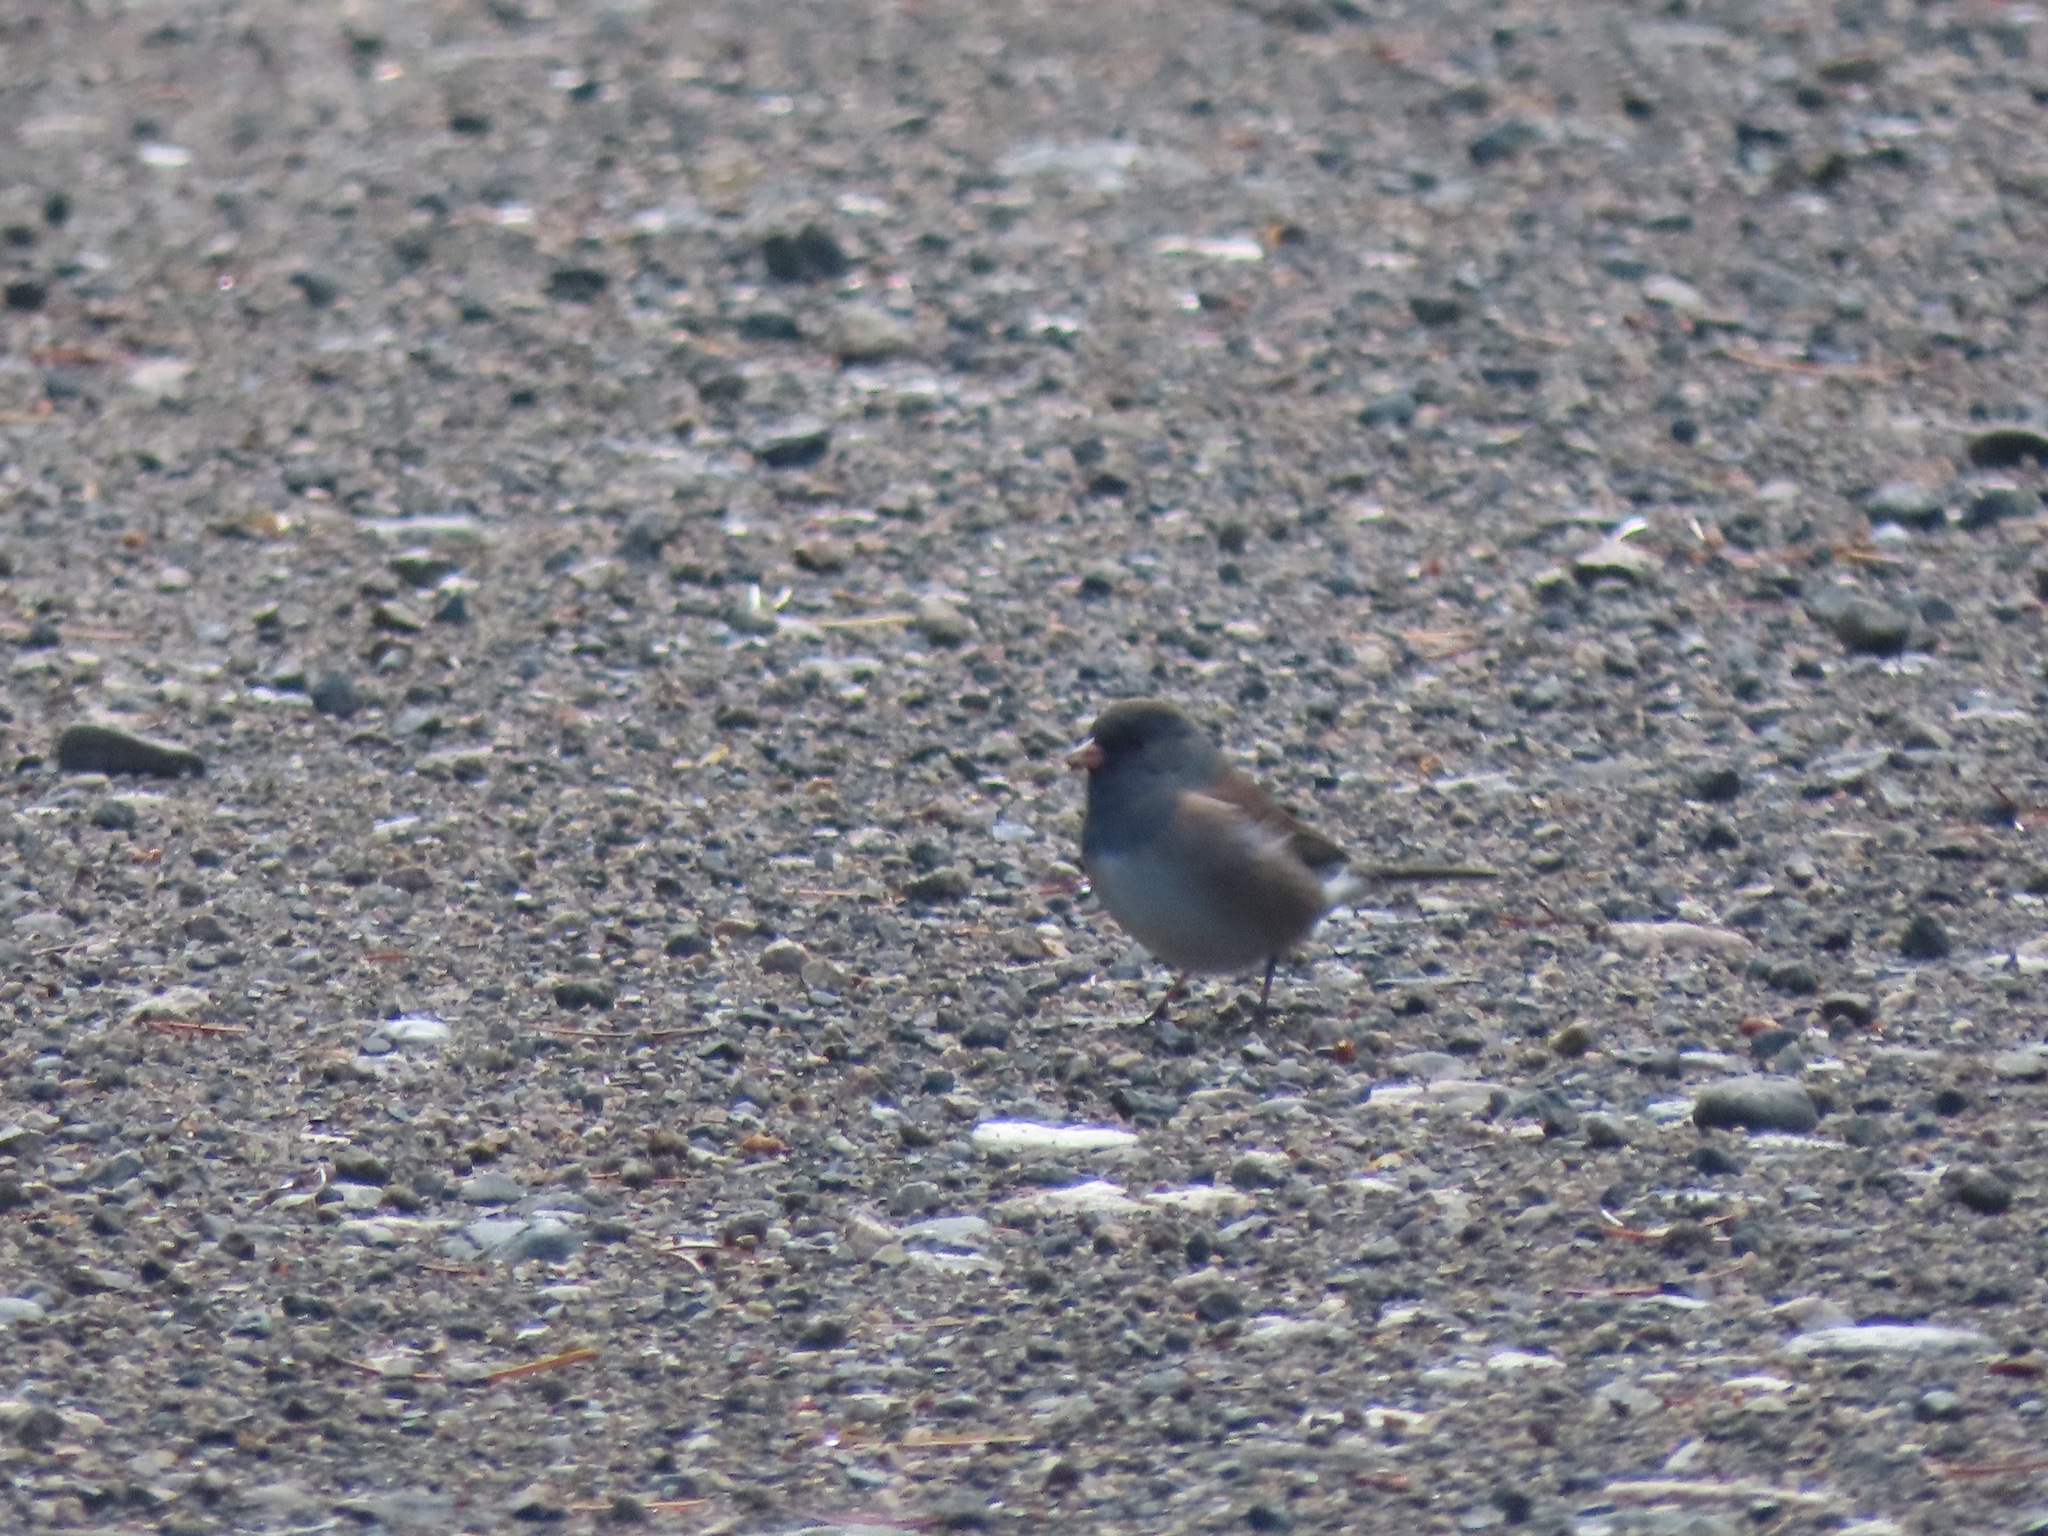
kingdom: Animalia
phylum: Chordata
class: Aves
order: Passeriformes
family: Passerellidae
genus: Junco
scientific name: Junco hyemalis
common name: Dark-eyed junco
